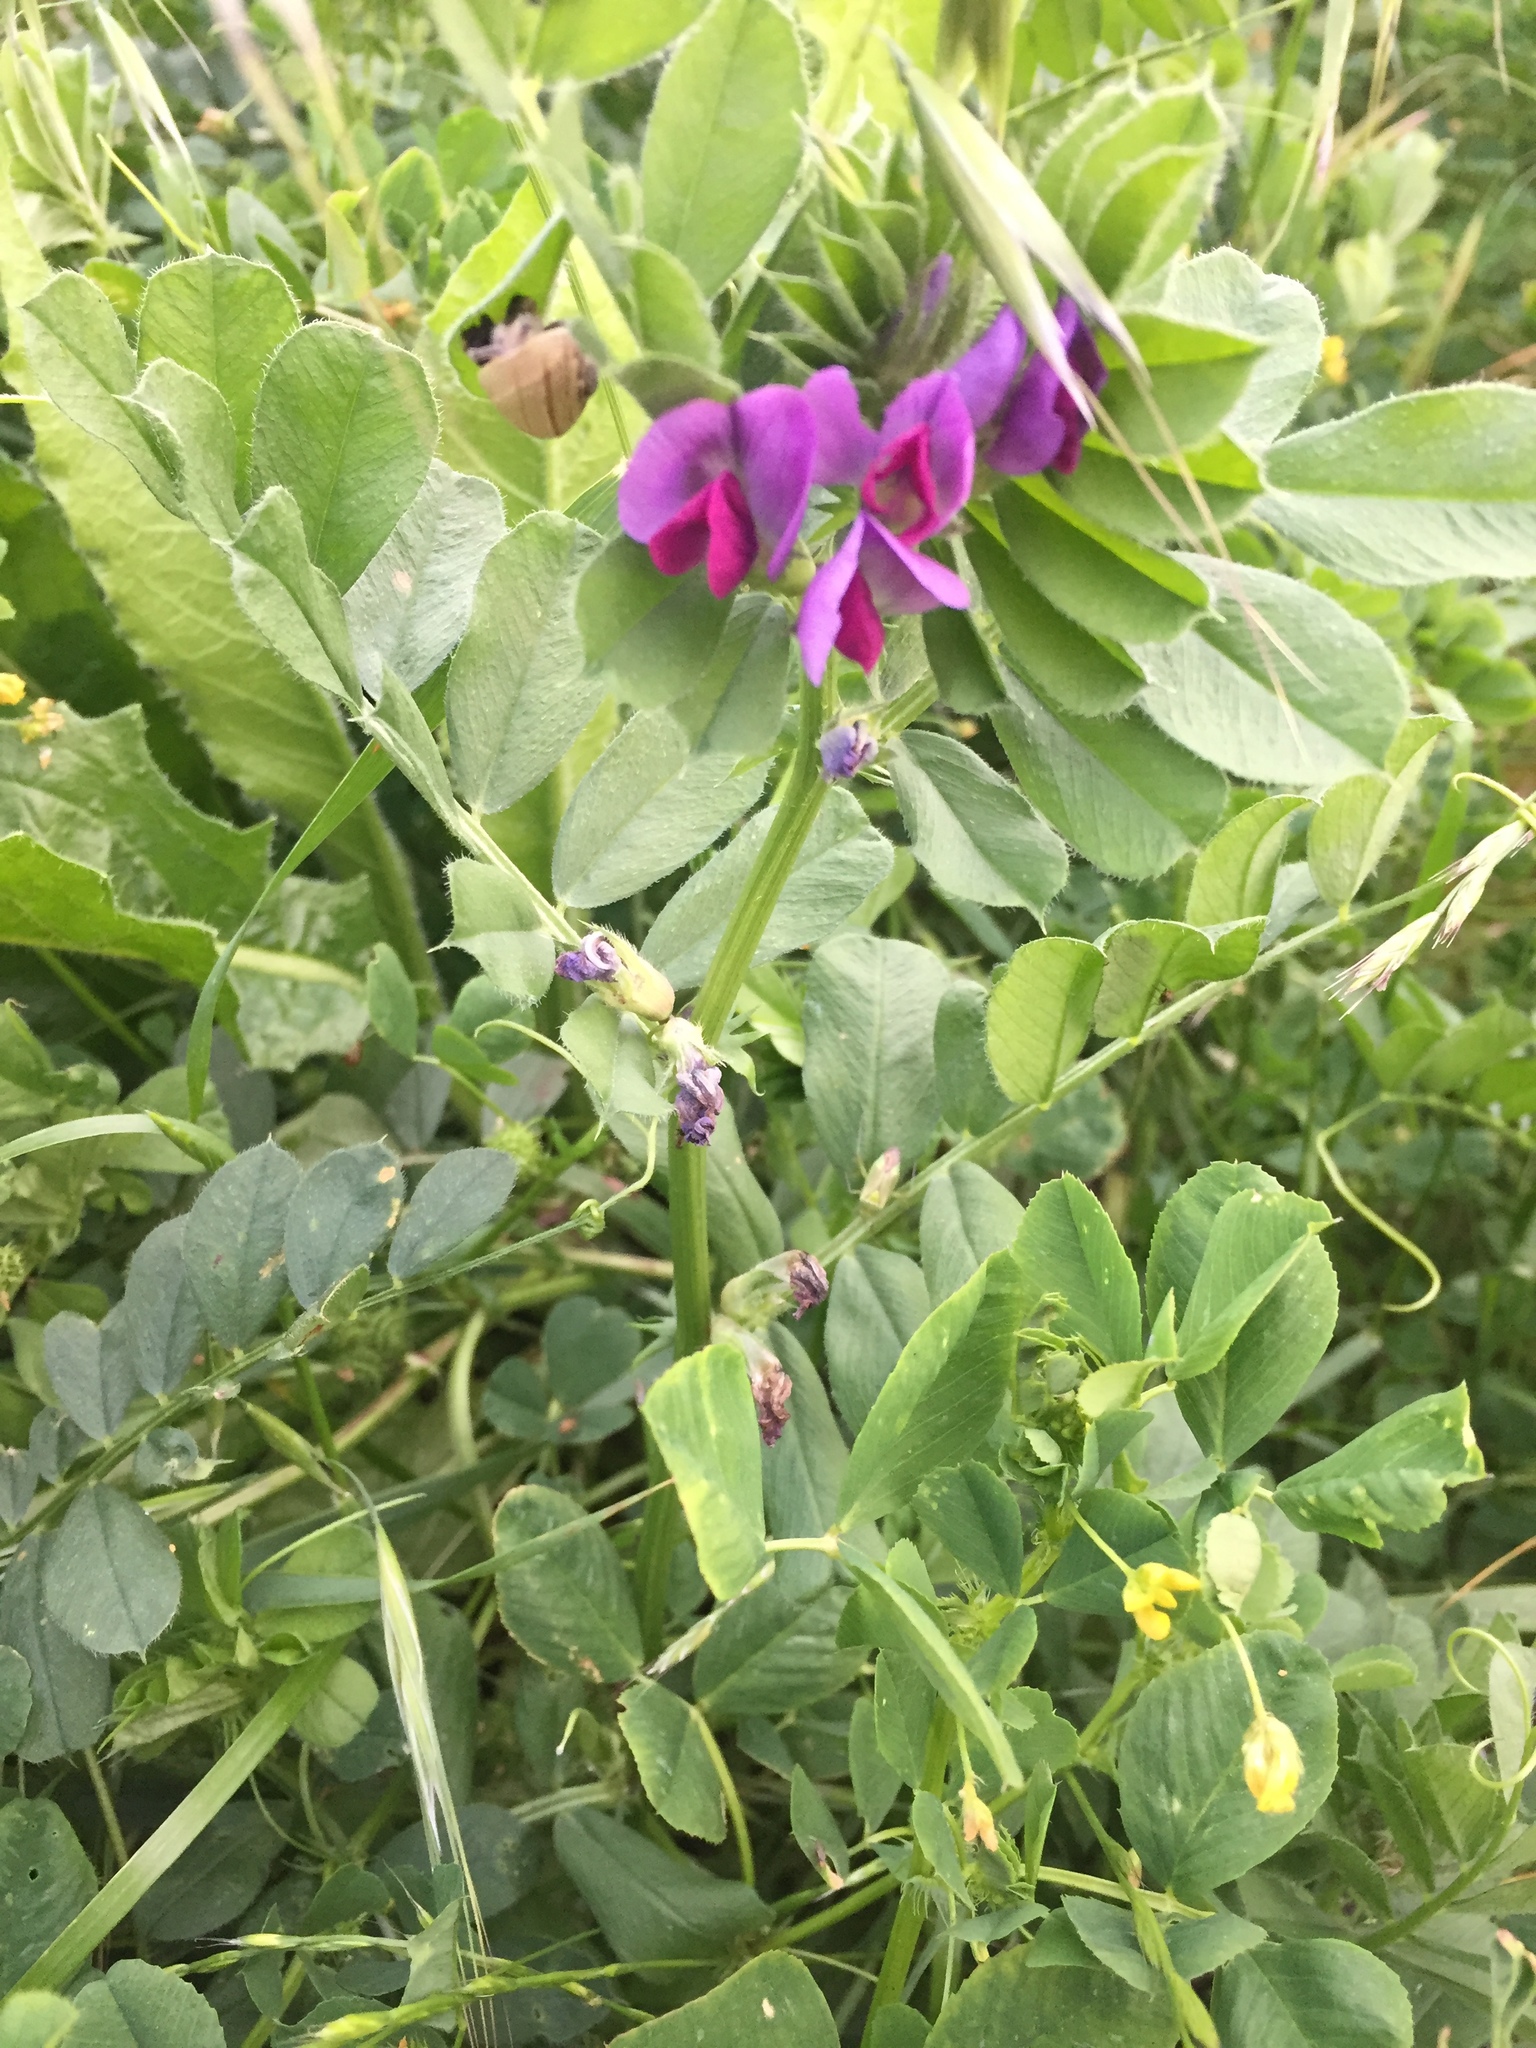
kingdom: Plantae
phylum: Tracheophyta
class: Magnoliopsida
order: Fabales
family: Fabaceae
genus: Vicia
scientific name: Vicia sativa
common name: Garden vetch
